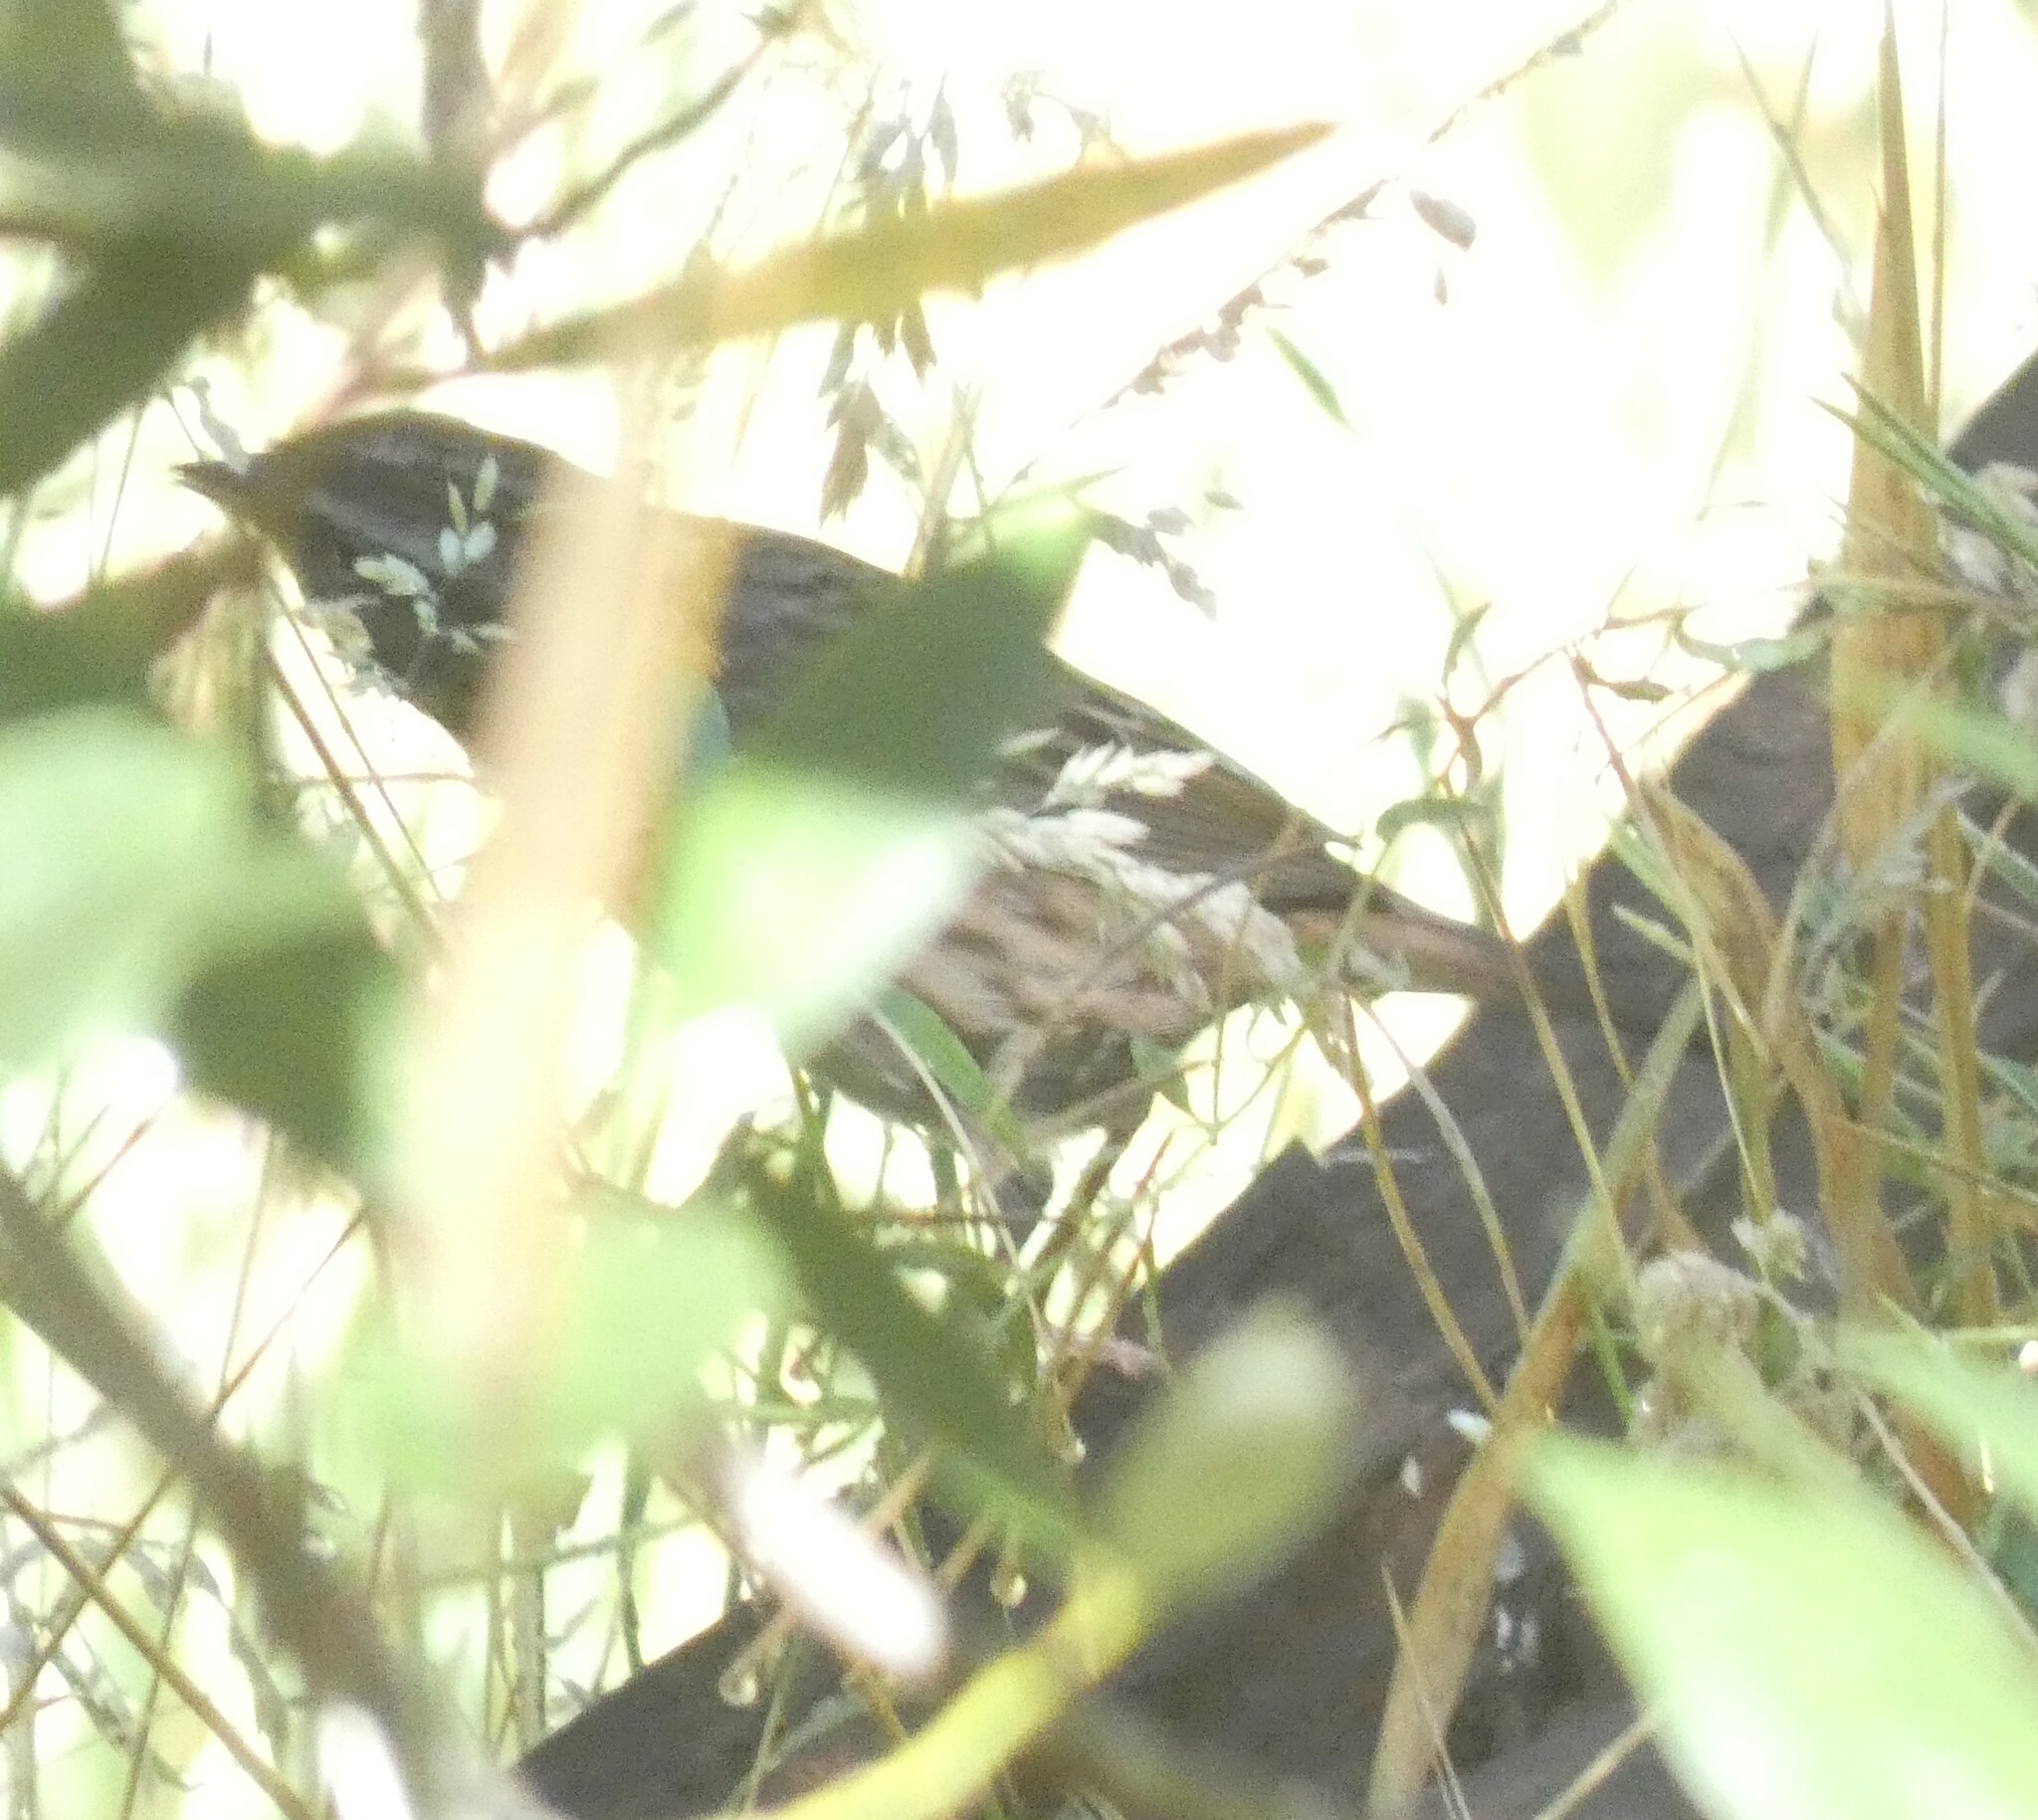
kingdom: Animalia
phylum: Chordata
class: Aves
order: Passeriformes
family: Passerellidae
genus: Melospiza
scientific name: Melospiza melodia
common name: Song sparrow
